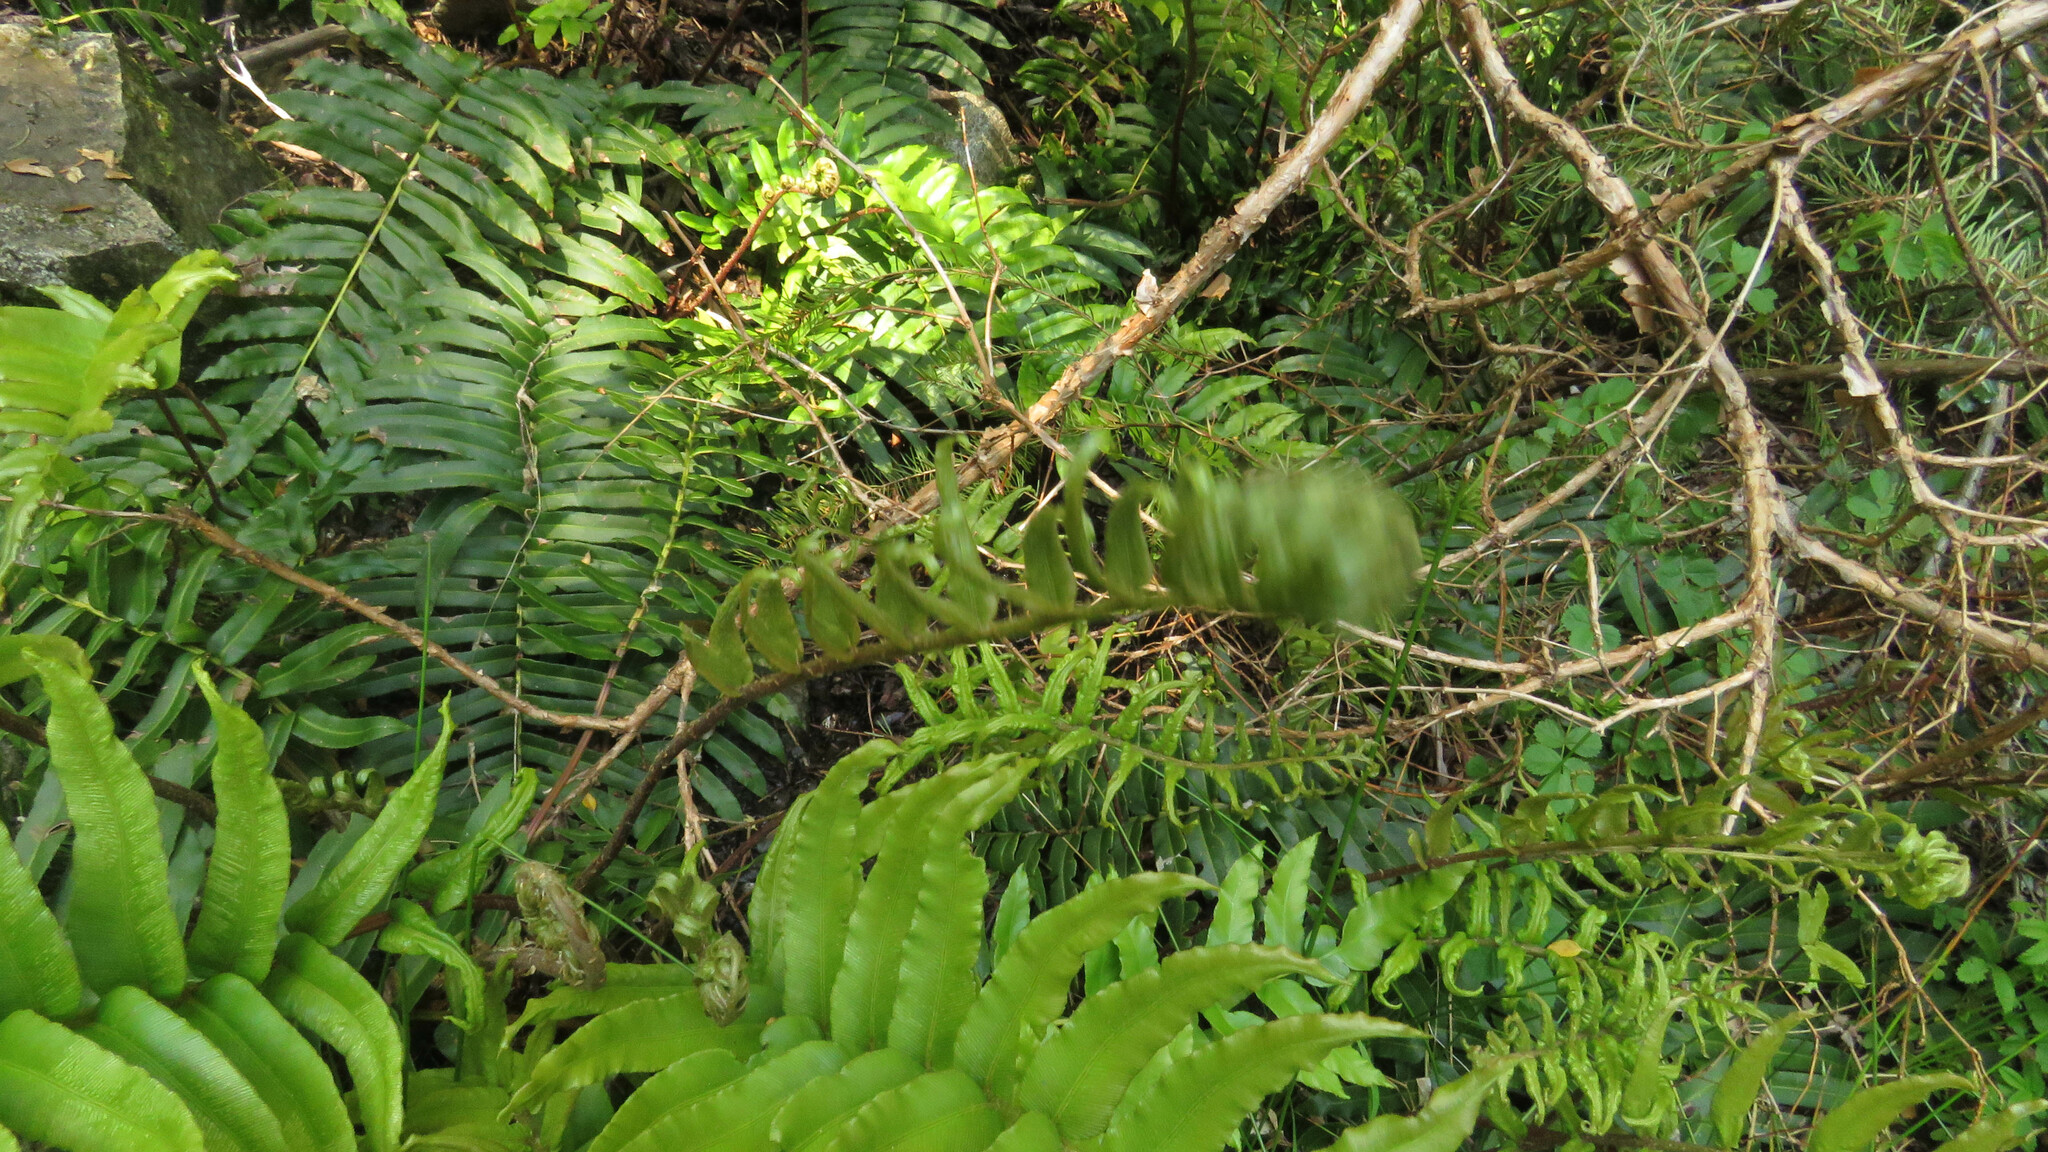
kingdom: Plantae
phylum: Tracheophyta
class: Polypodiopsida
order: Polypodiales
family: Blechnaceae
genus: Parablechnum
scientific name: Parablechnum chilense
